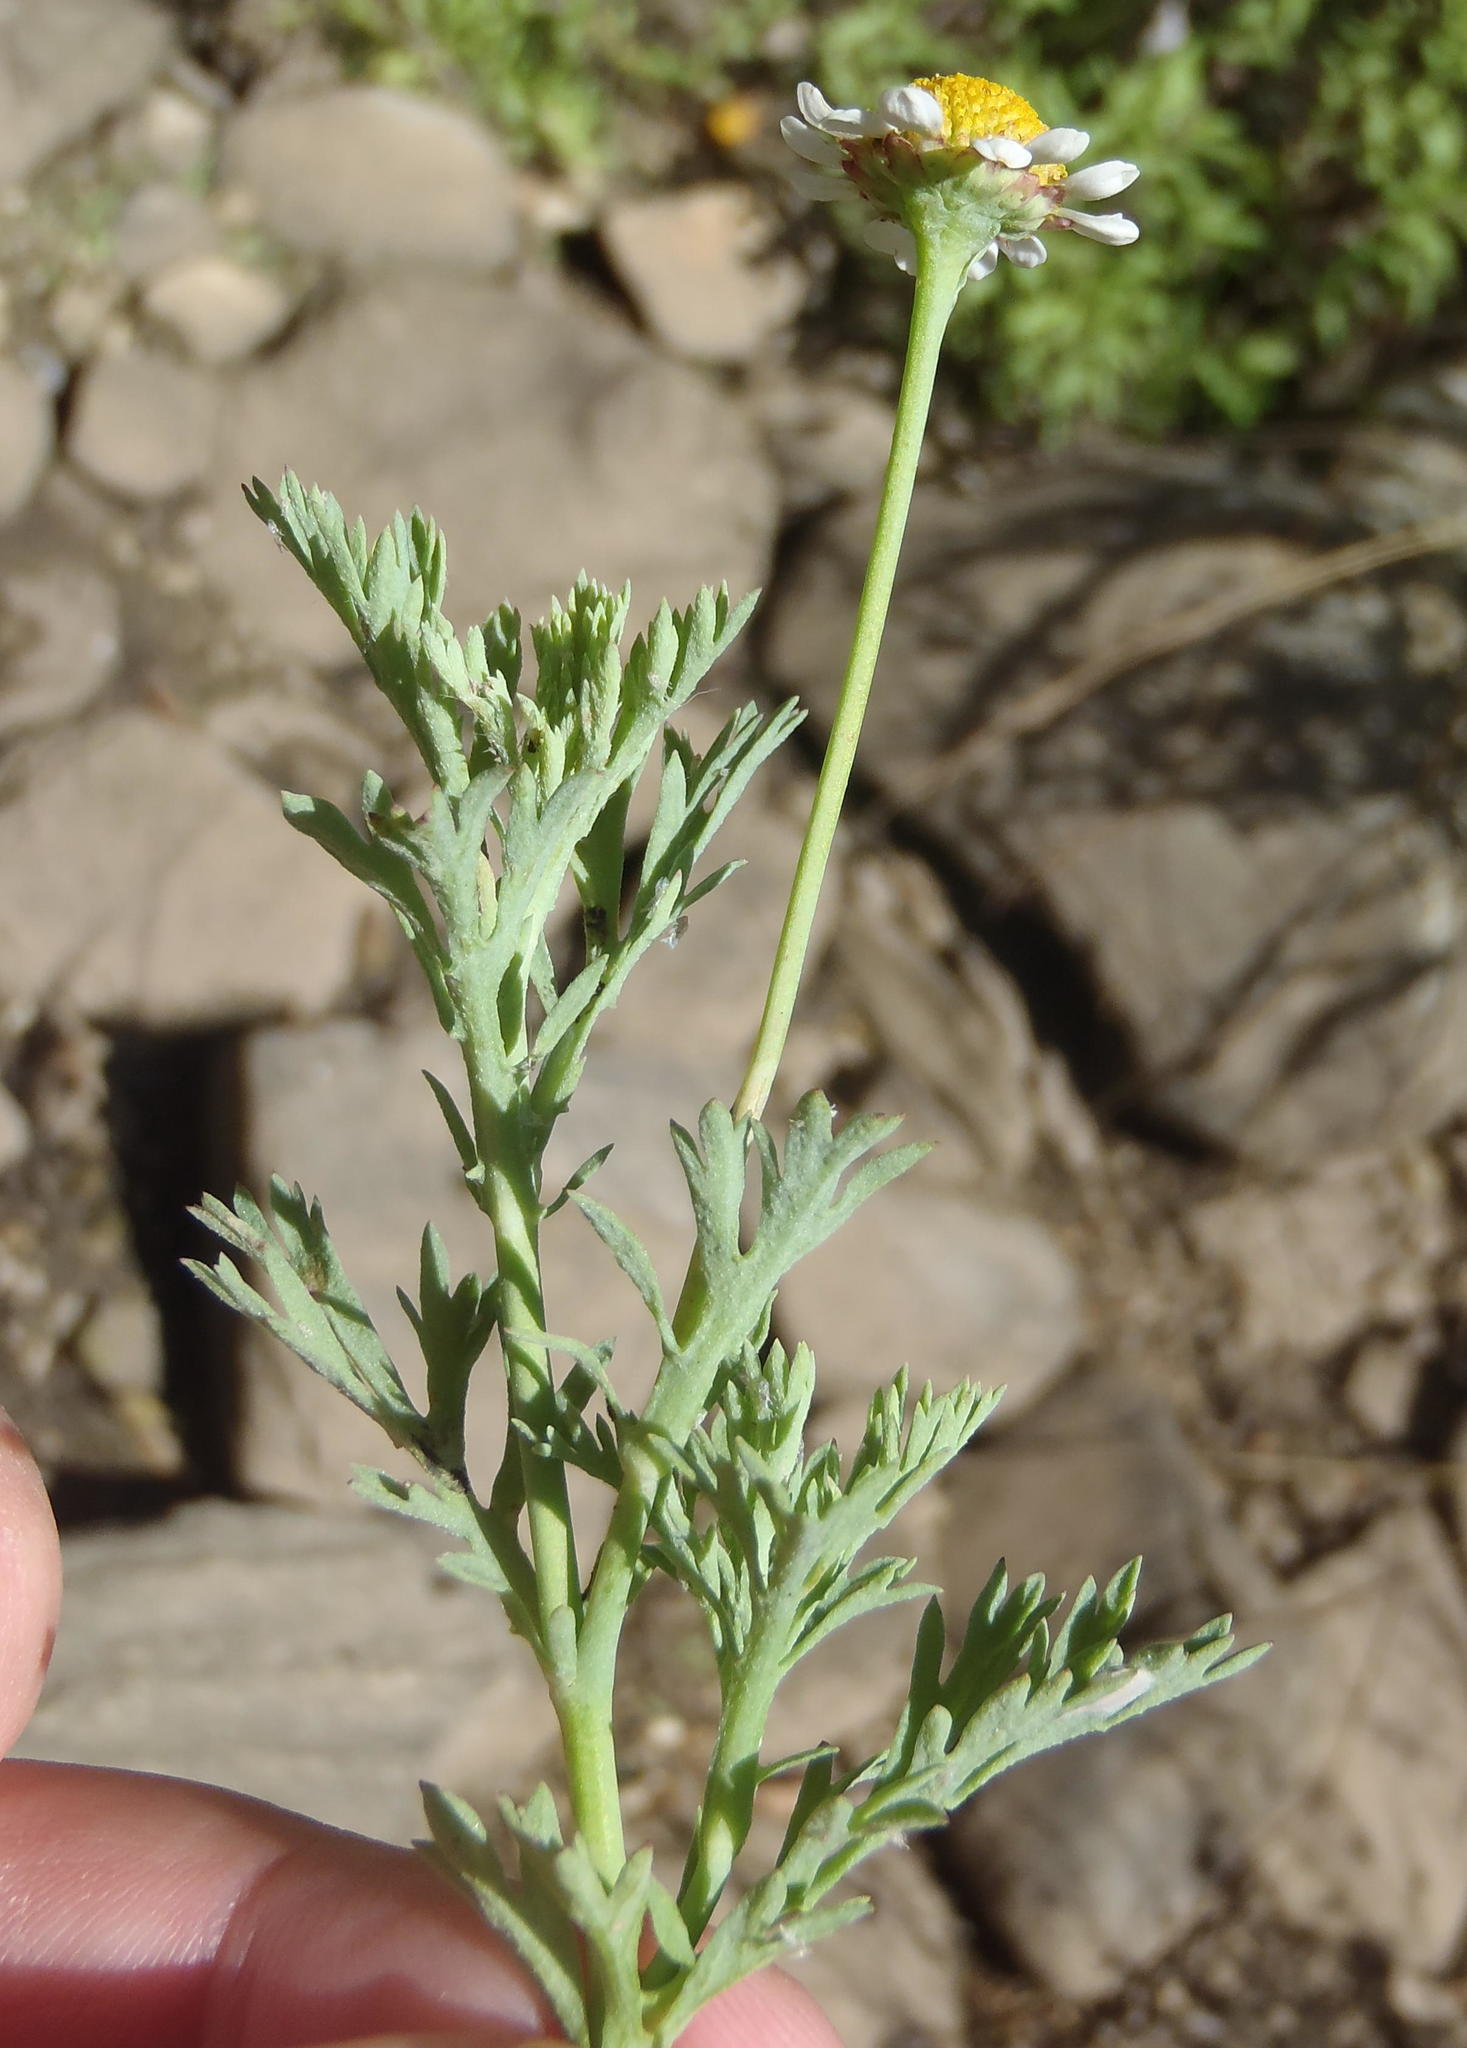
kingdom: Plantae
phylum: Tracheophyta
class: Magnoliopsida
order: Asterales
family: Asteraceae
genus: Cotula
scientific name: Cotula nigellifolia
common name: Staggerweed
